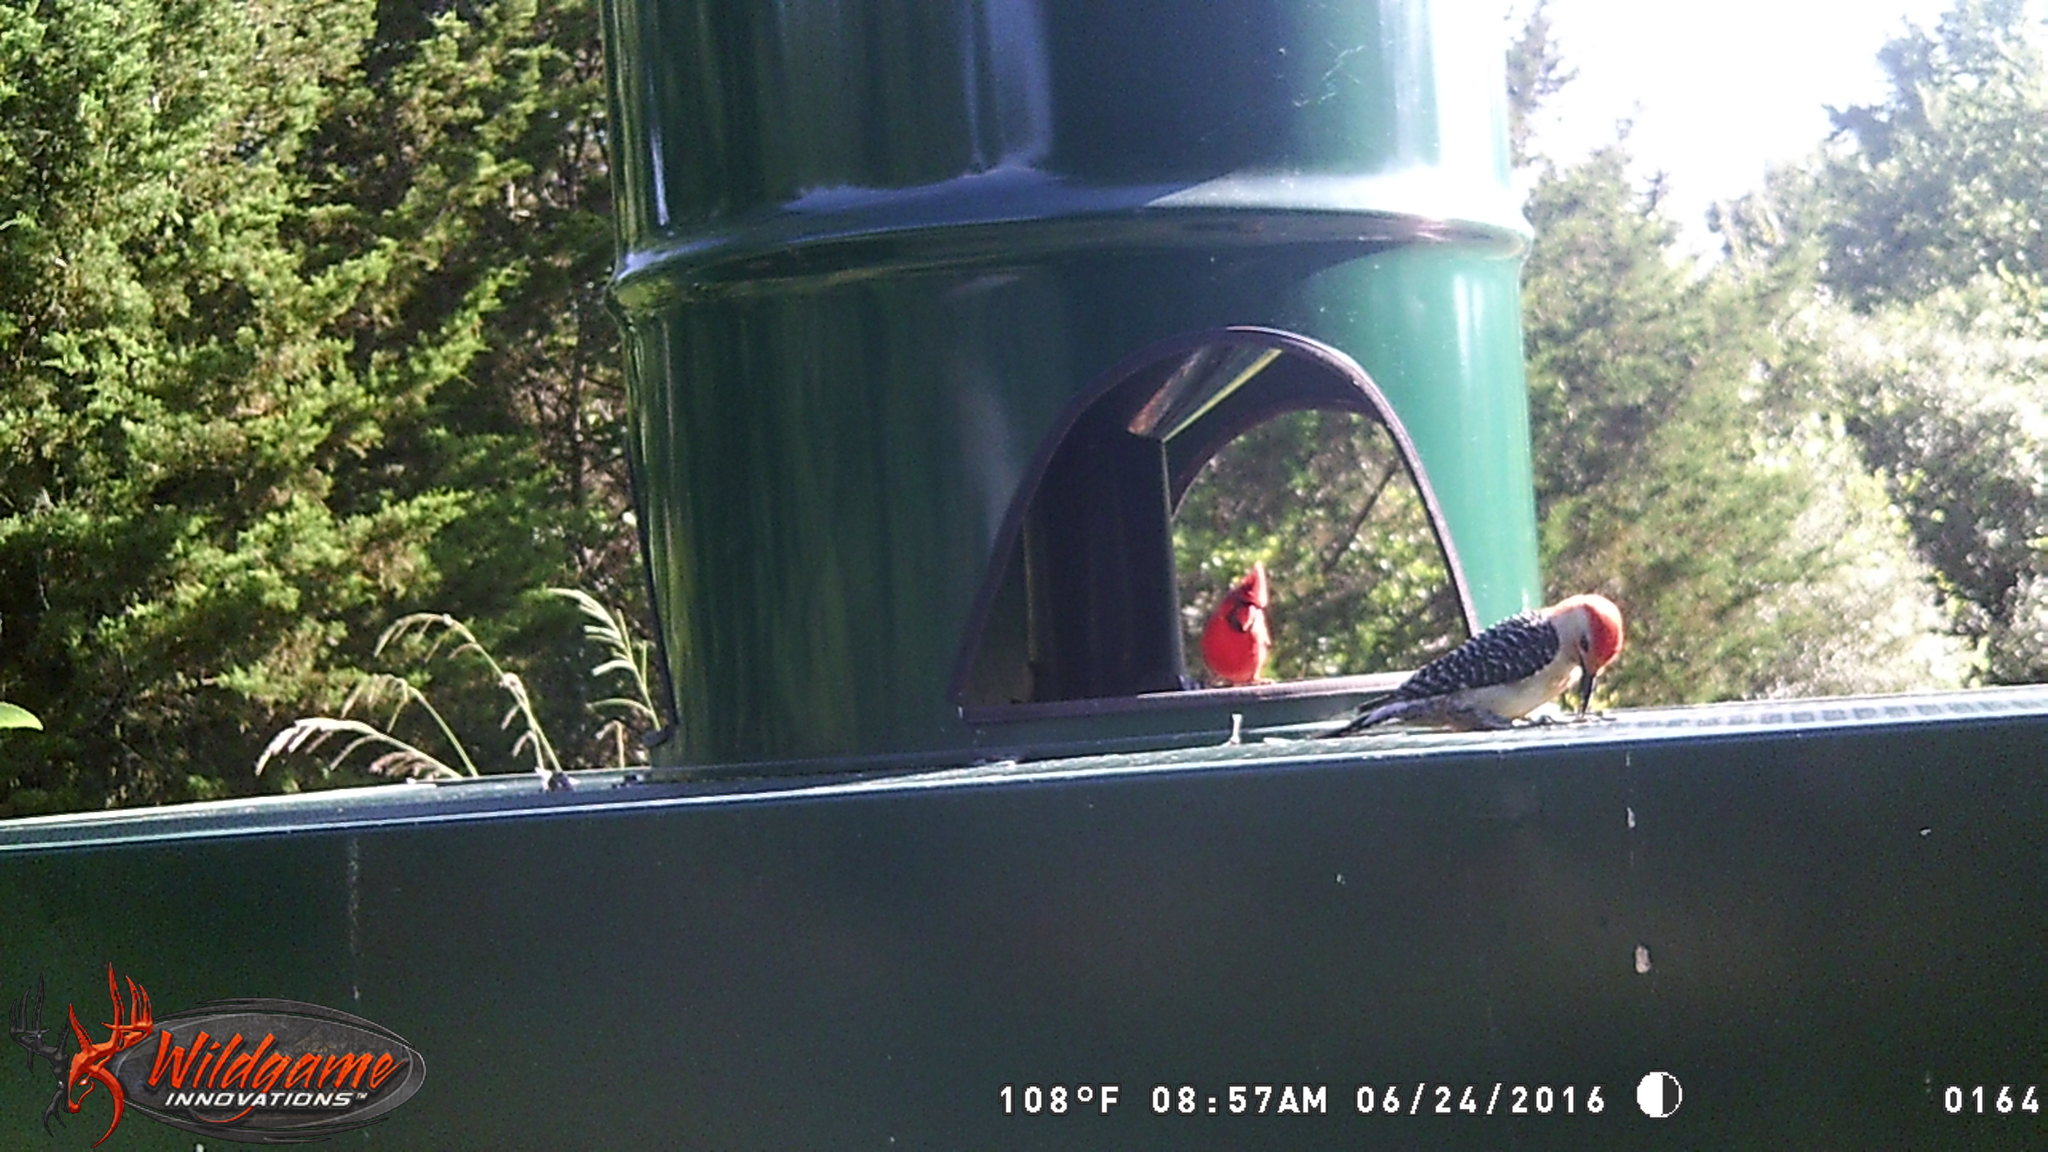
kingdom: Animalia
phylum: Chordata
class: Aves
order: Piciformes
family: Picidae
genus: Melanerpes
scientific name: Melanerpes carolinus
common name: Red-bellied woodpecker
